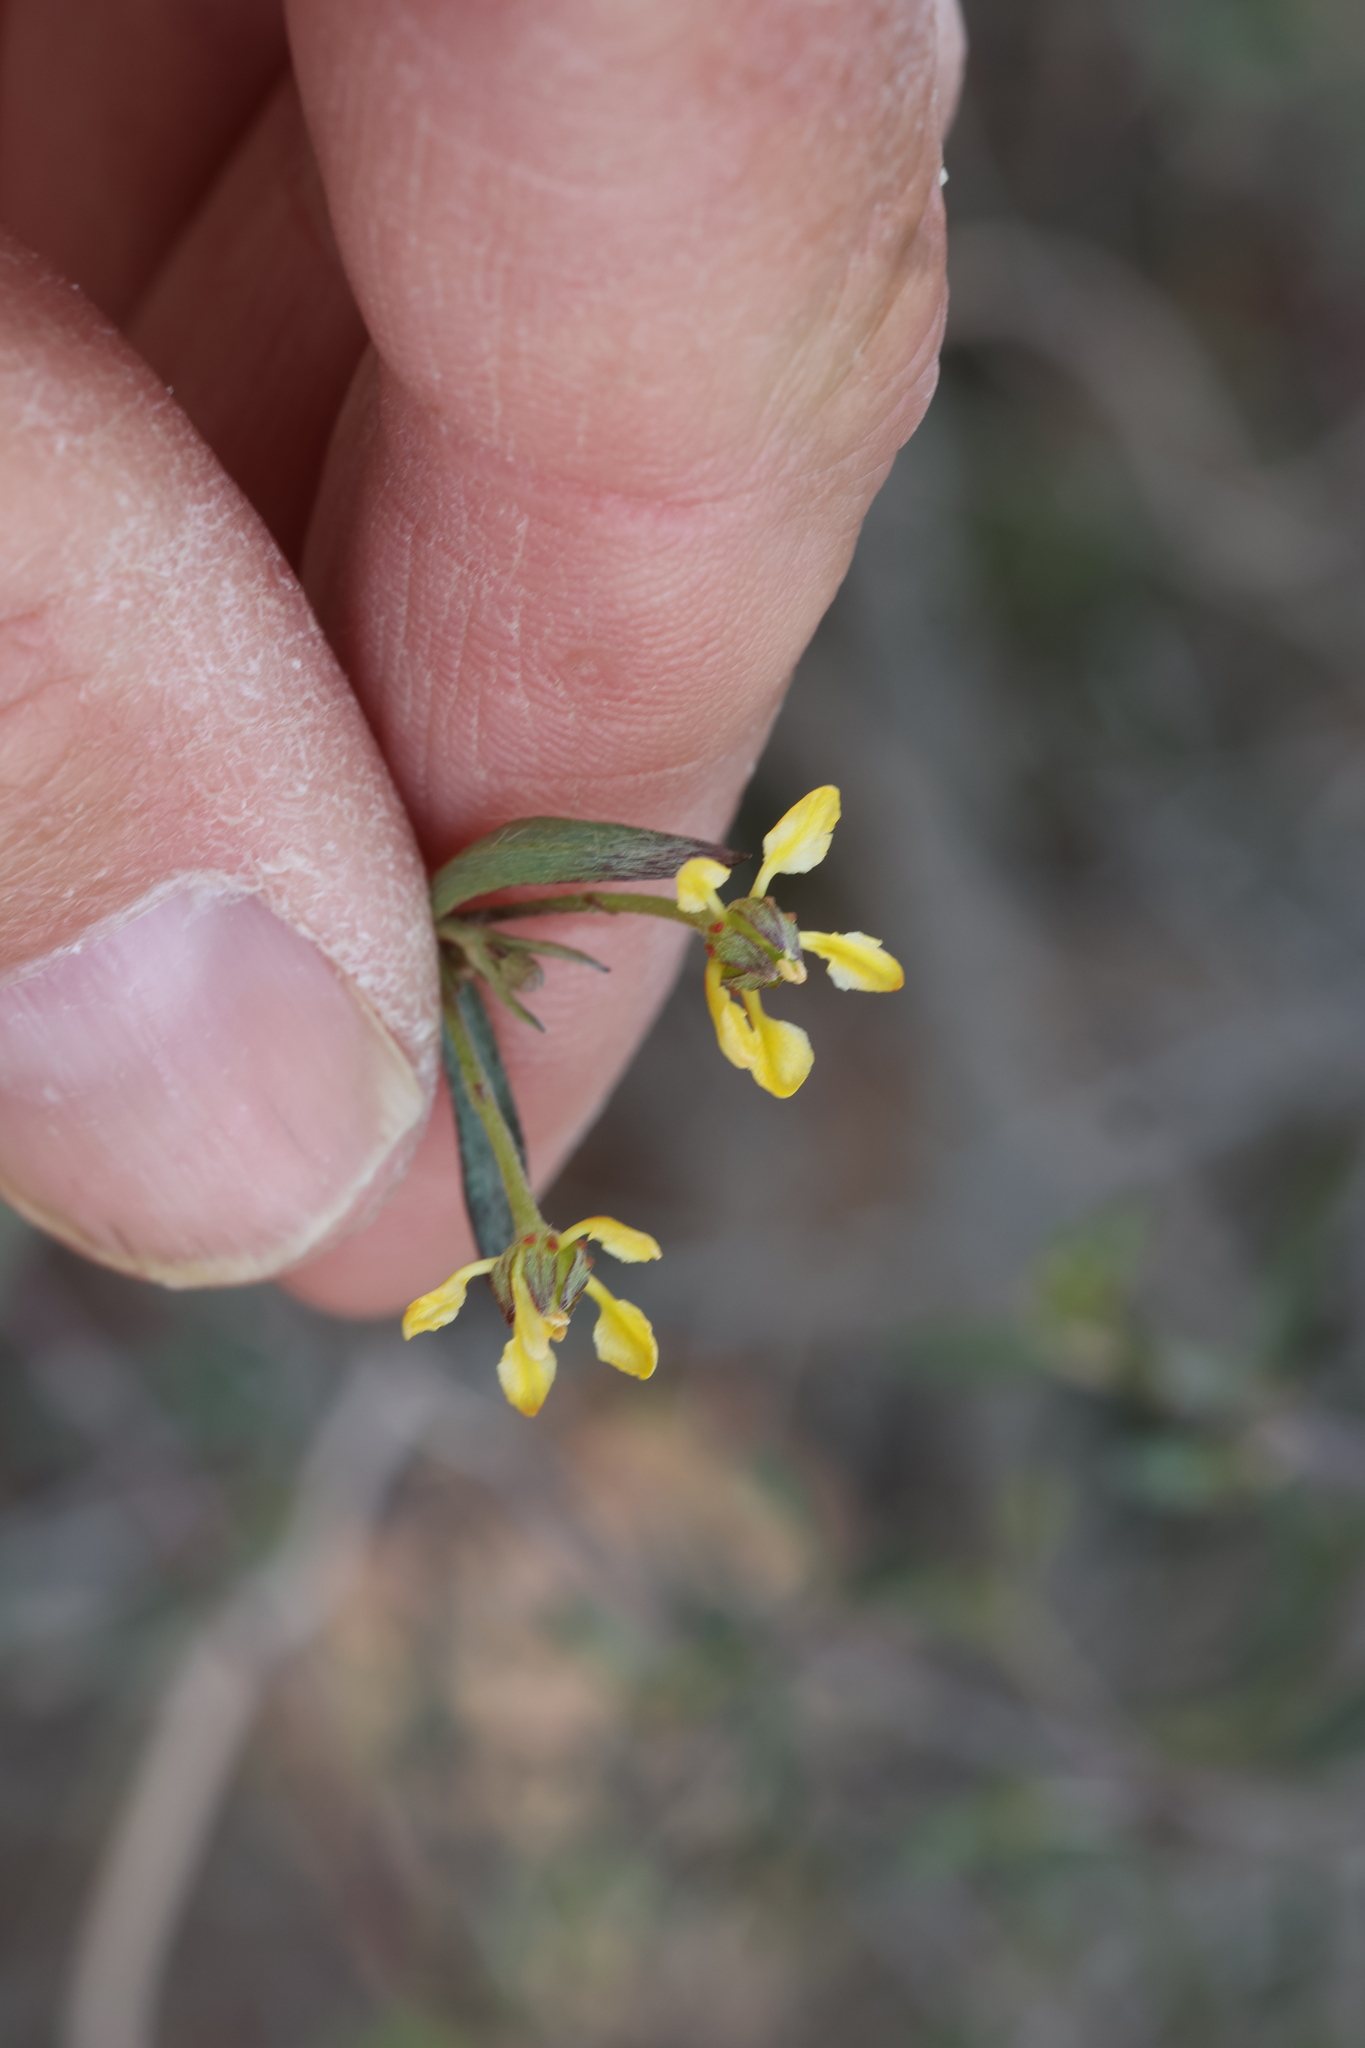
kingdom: Plantae
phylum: Tracheophyta
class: Magnoliopsida
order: Malpighiales
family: Malpighiaceae
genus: Cottsia
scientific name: Cottsia gracilis
